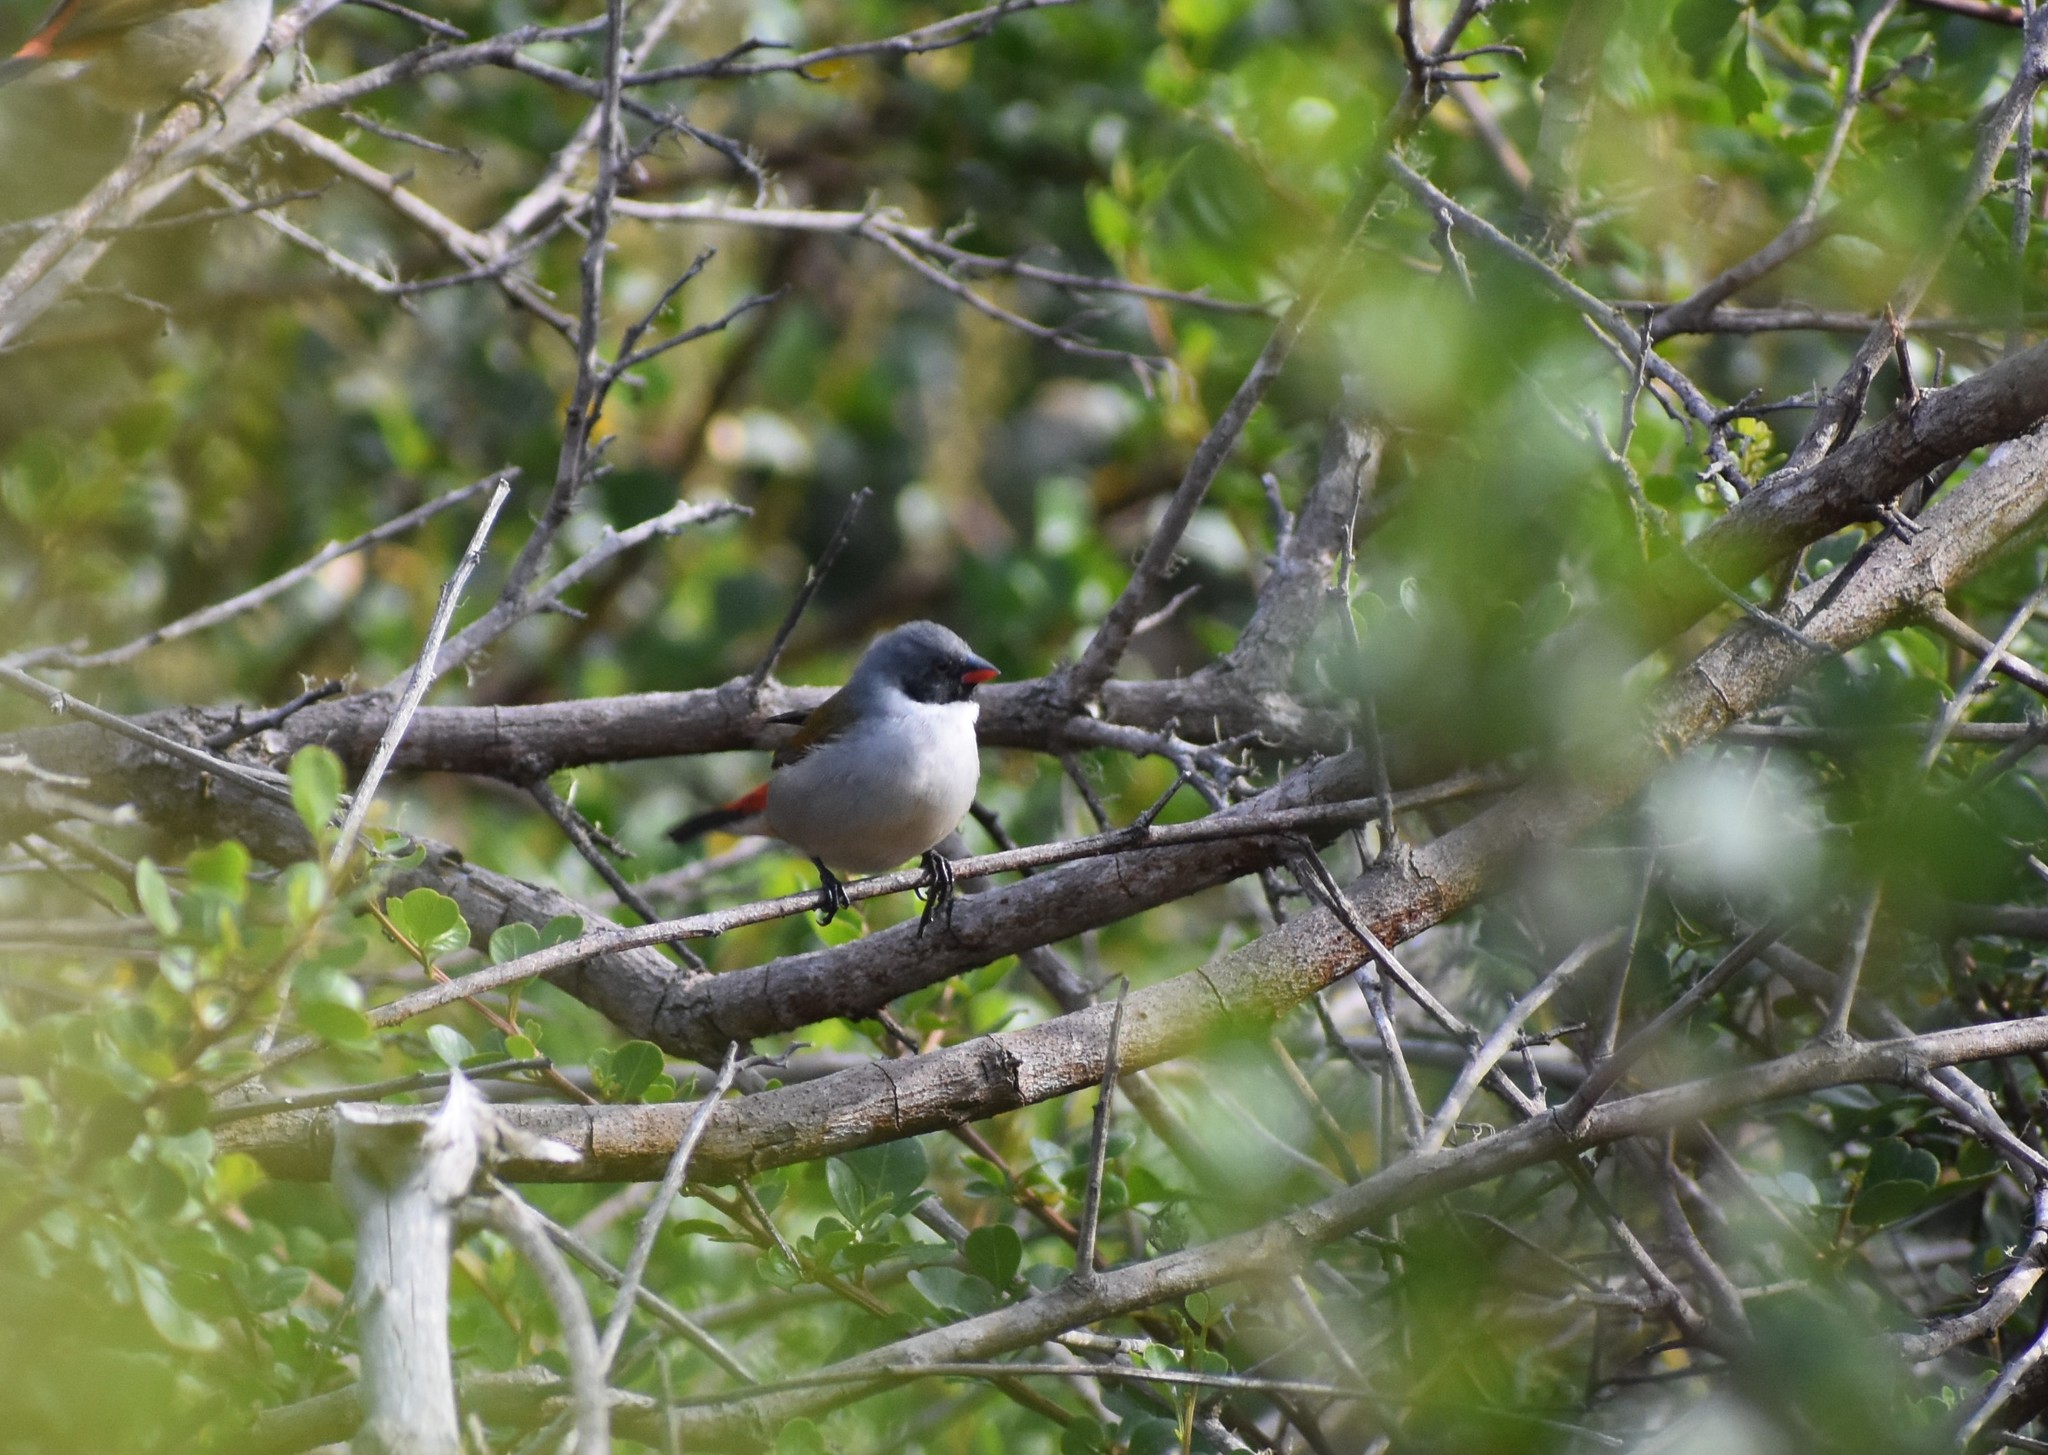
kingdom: Animalia
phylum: Chordata
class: Aves
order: Passeriformes
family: Estrildidae
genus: Coccopygia
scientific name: Coccopygia melanotis
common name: Swee waxbill
